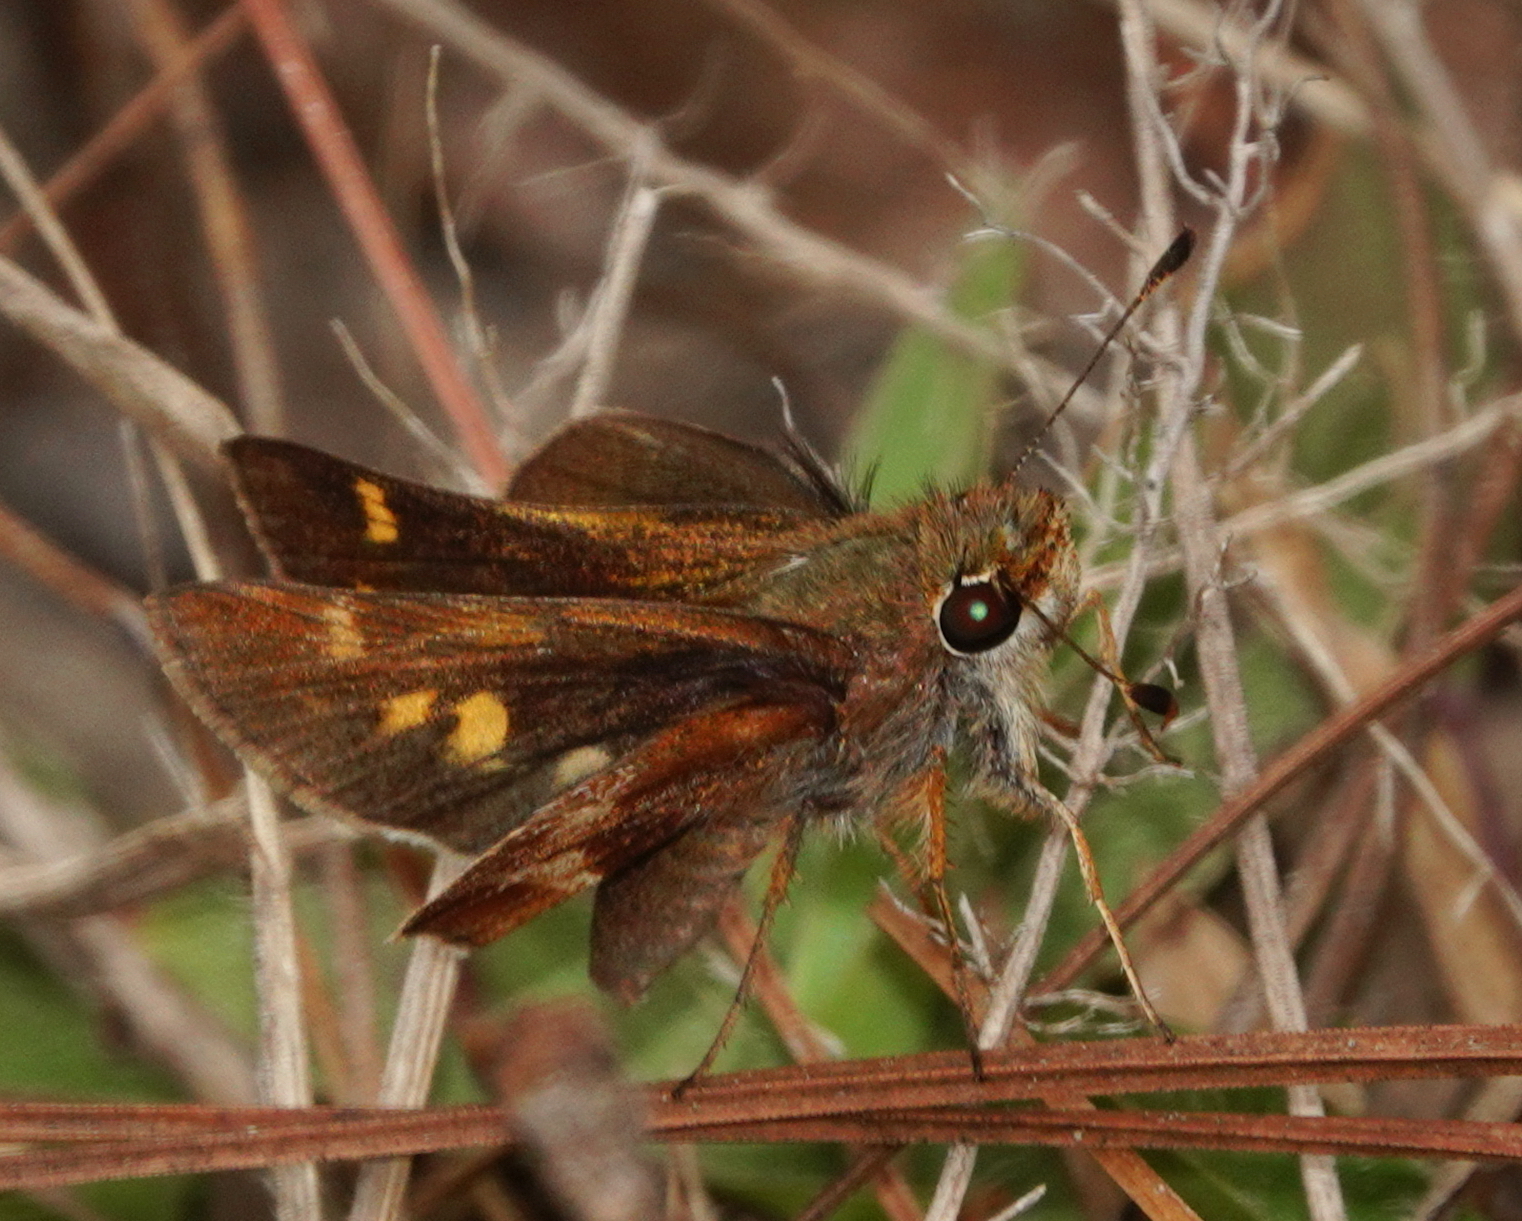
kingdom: Animalia
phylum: Arthropoda
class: Insecta
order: Lepidoptera
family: Hesperiidae
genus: Lon
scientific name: Lon
